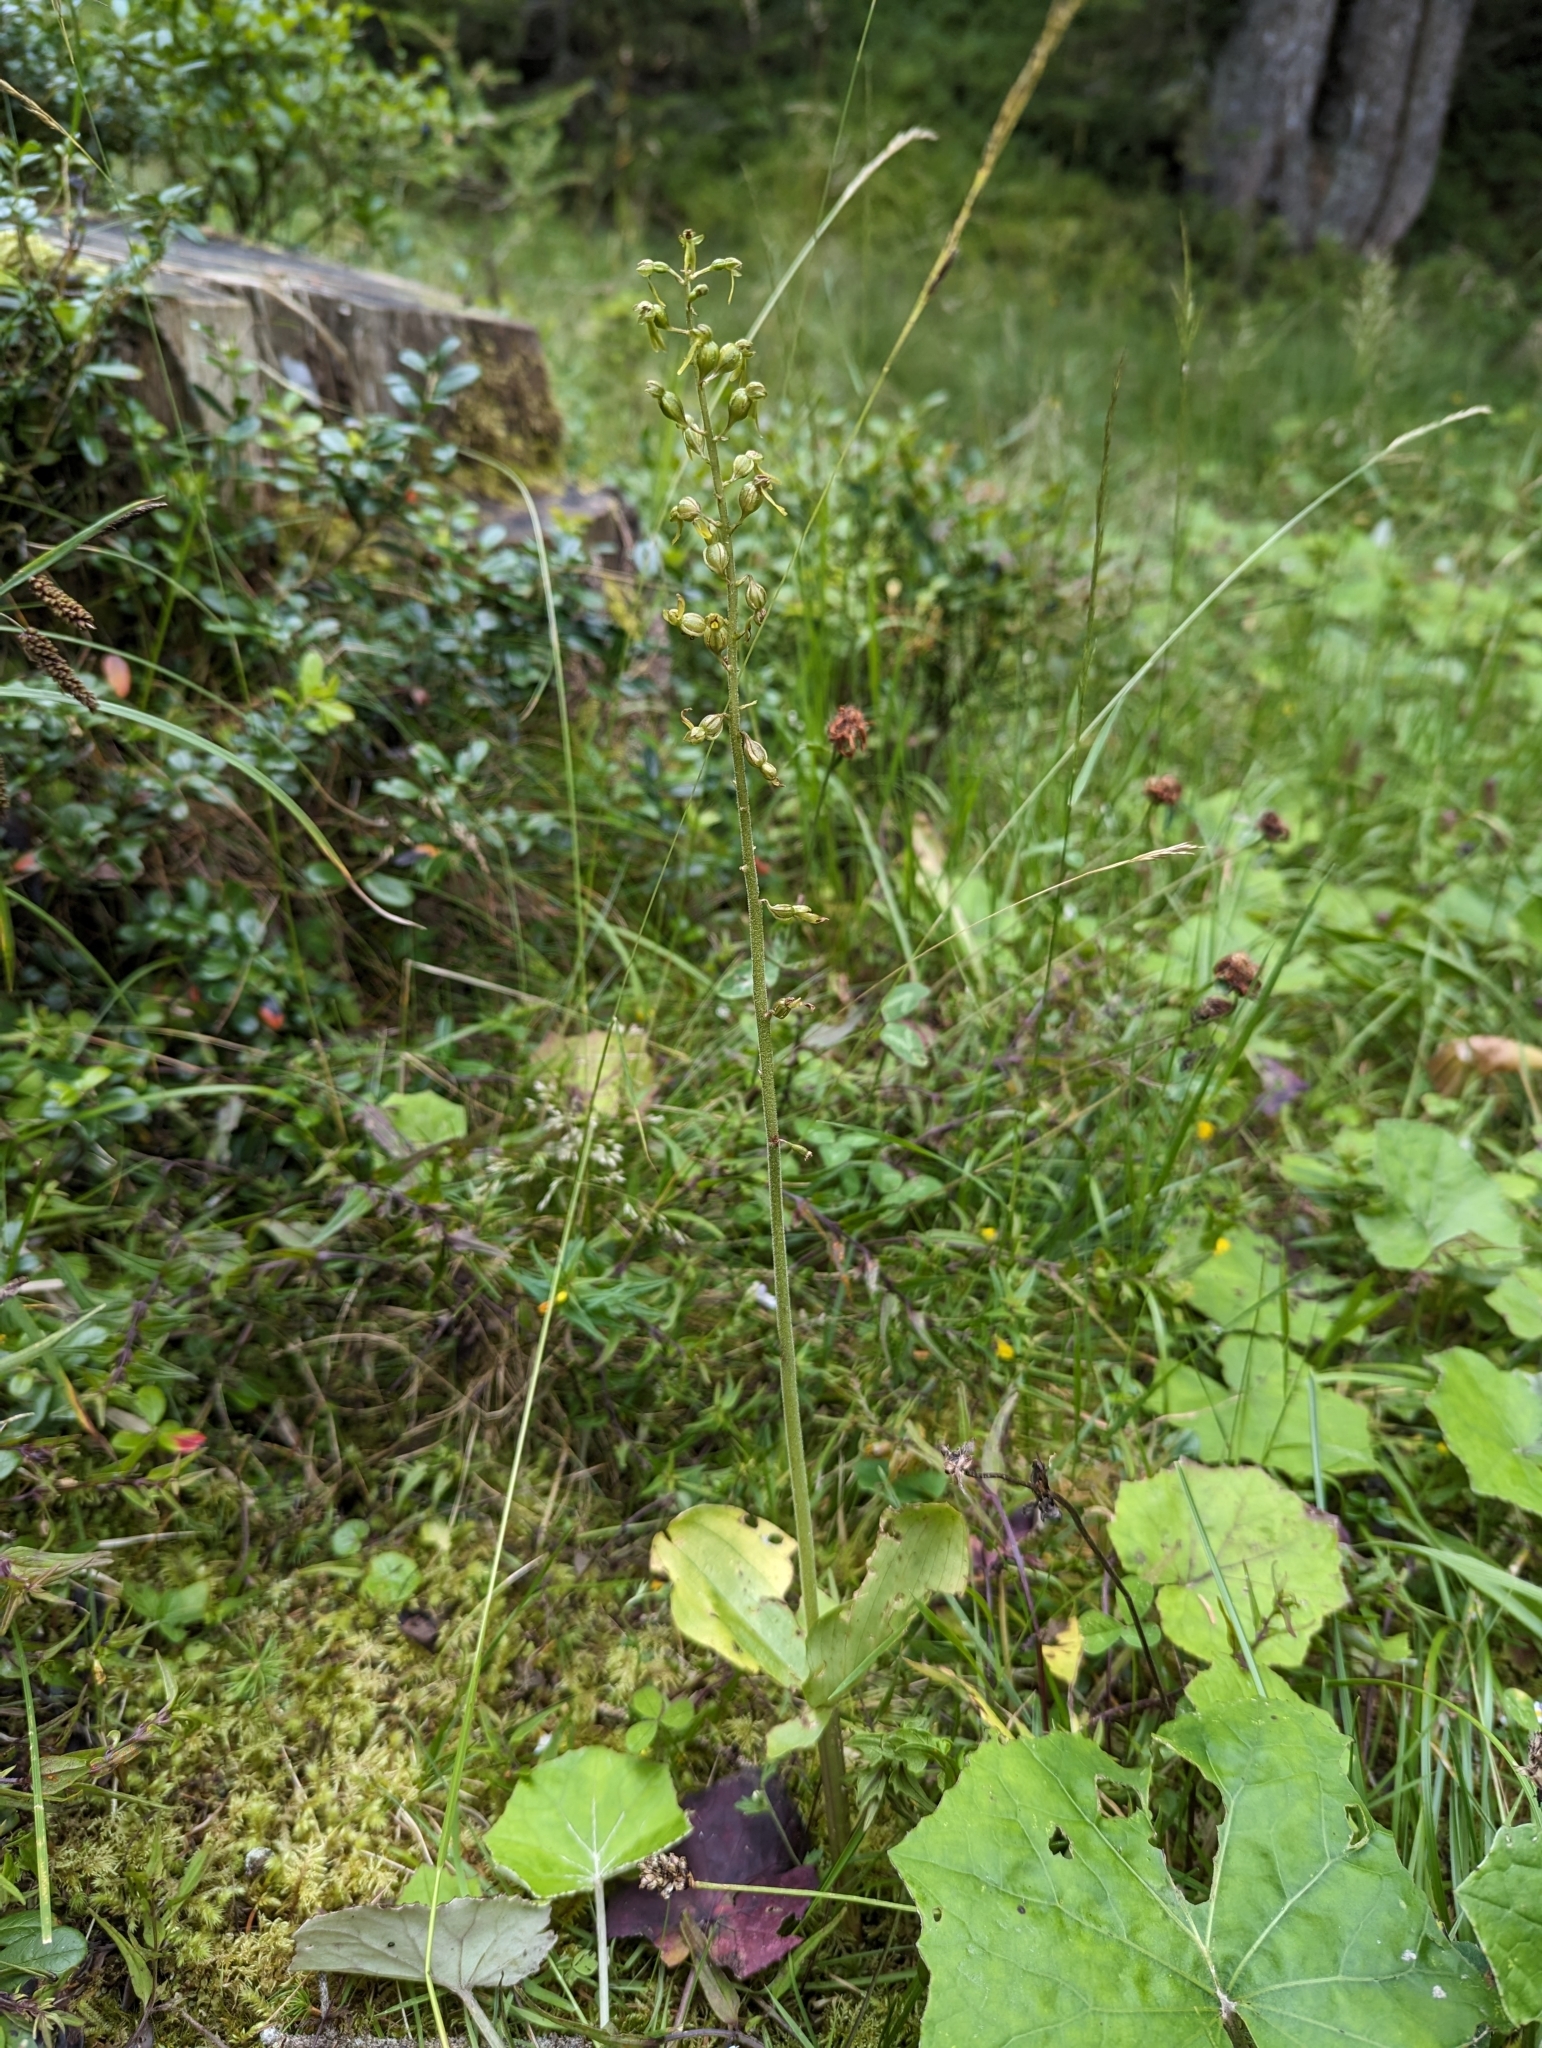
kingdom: Plantae
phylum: Tracheophyta
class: Liliopsida
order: Asparagales
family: Orchidaceae
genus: Neottia
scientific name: Neottia ovata
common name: Common twayblade
